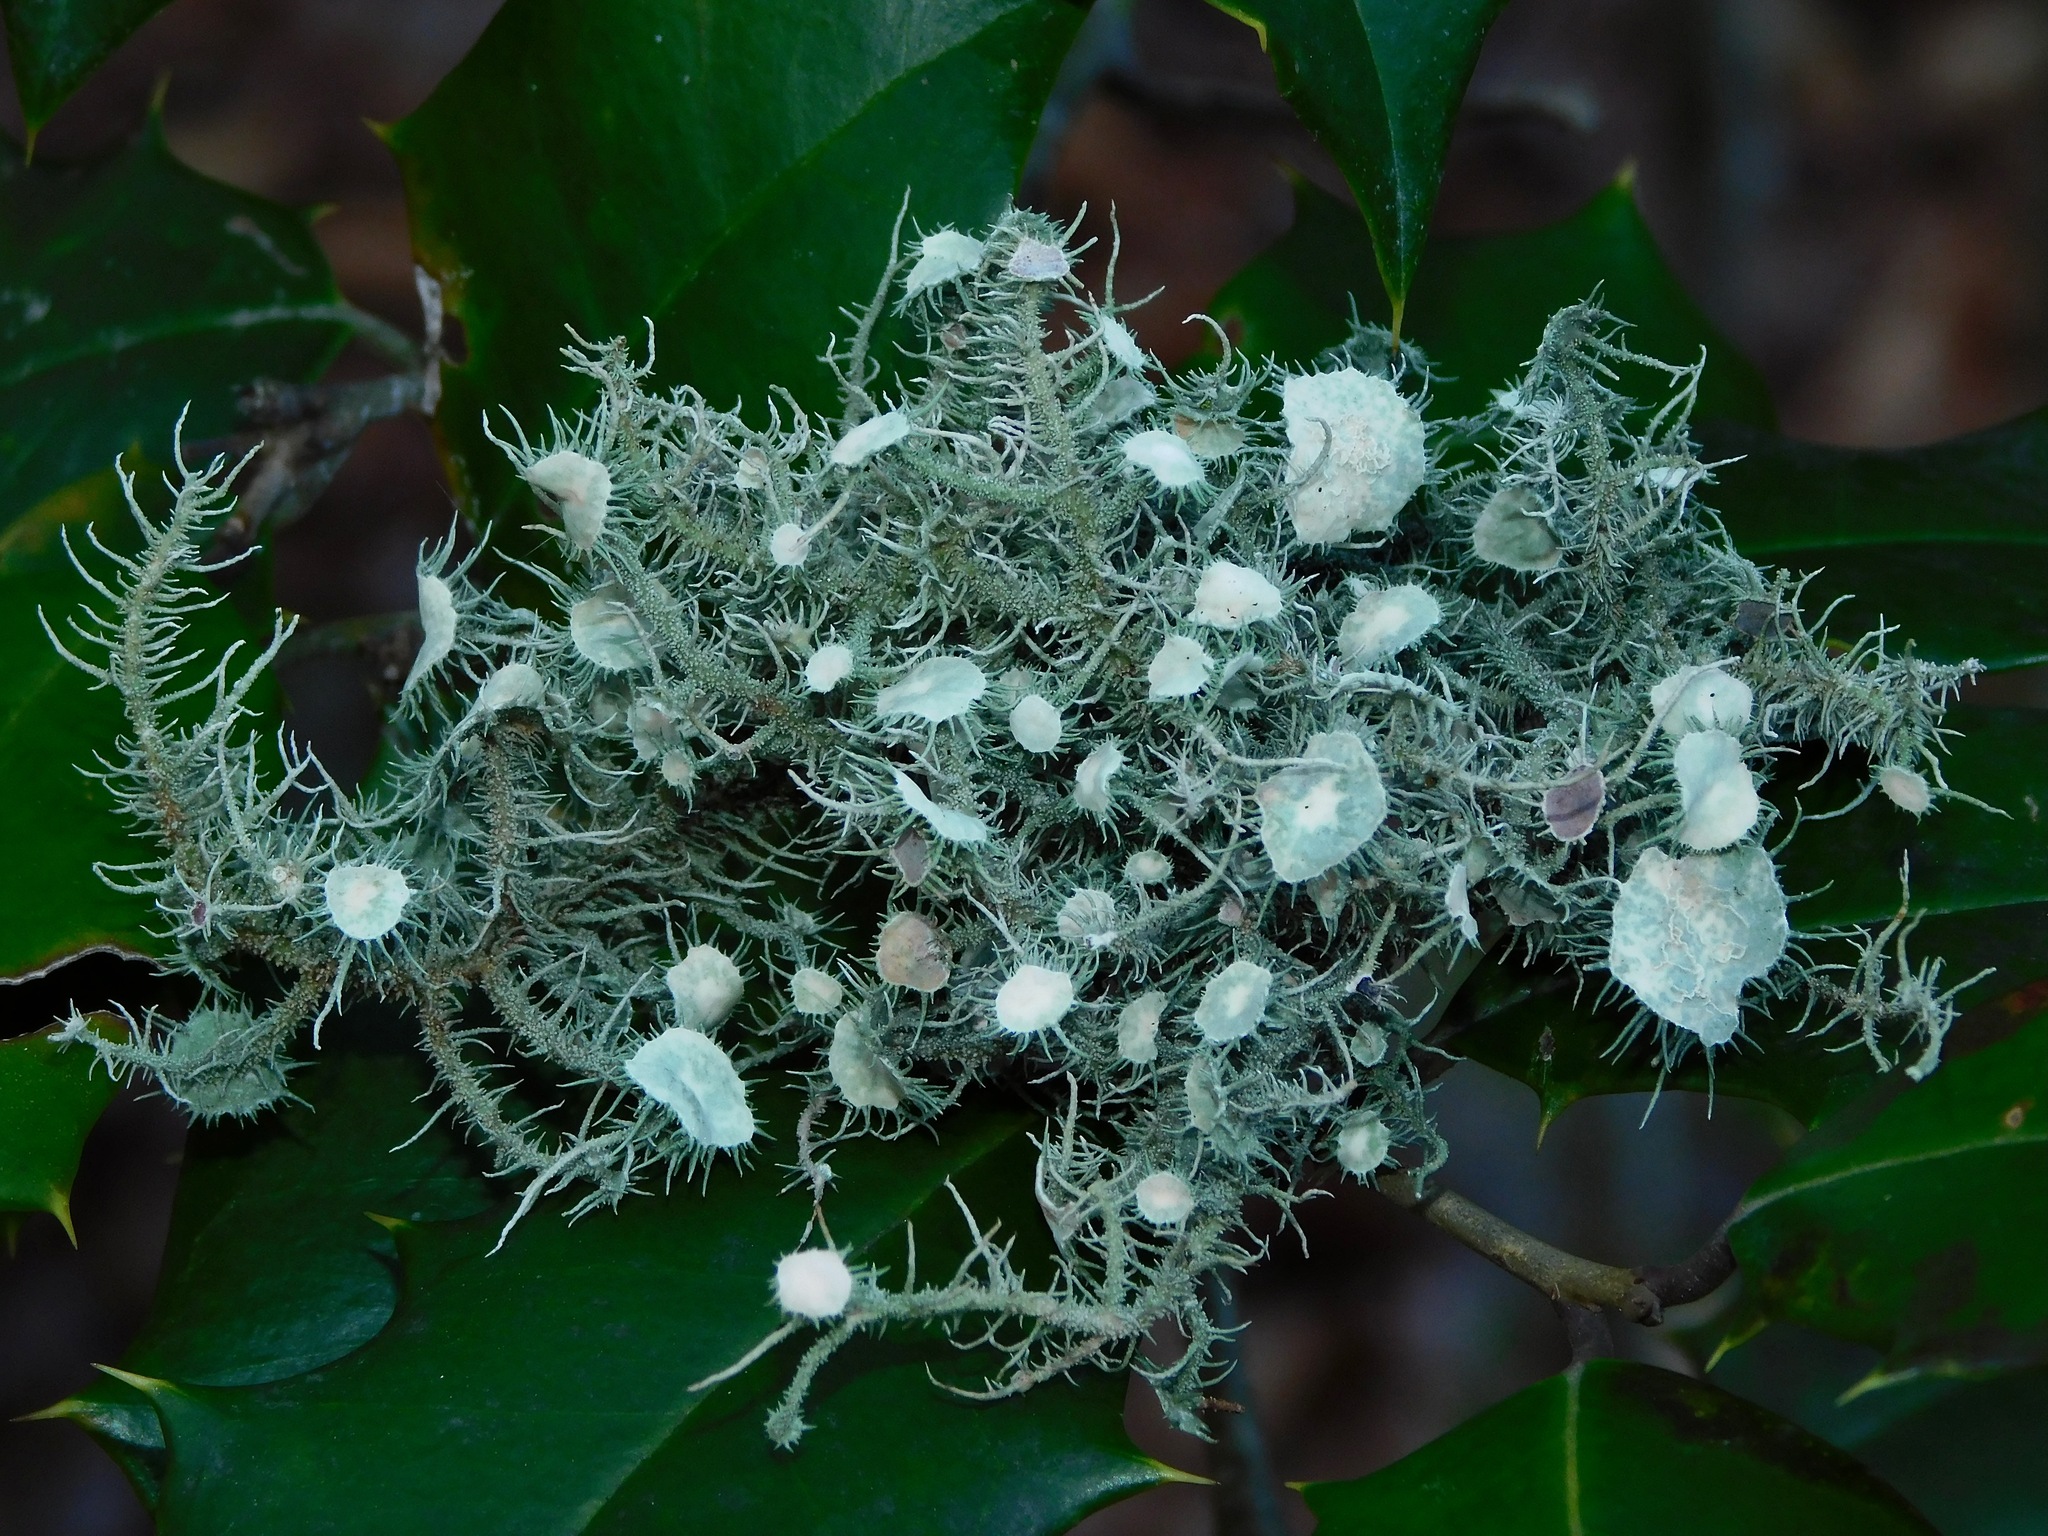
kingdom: Fungi
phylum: Ascomycota
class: Lecanoromycetes
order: Lecanorales
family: Parmeliaceae
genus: Usnea
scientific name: Usnea strigosa
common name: Bushy beard lichen
